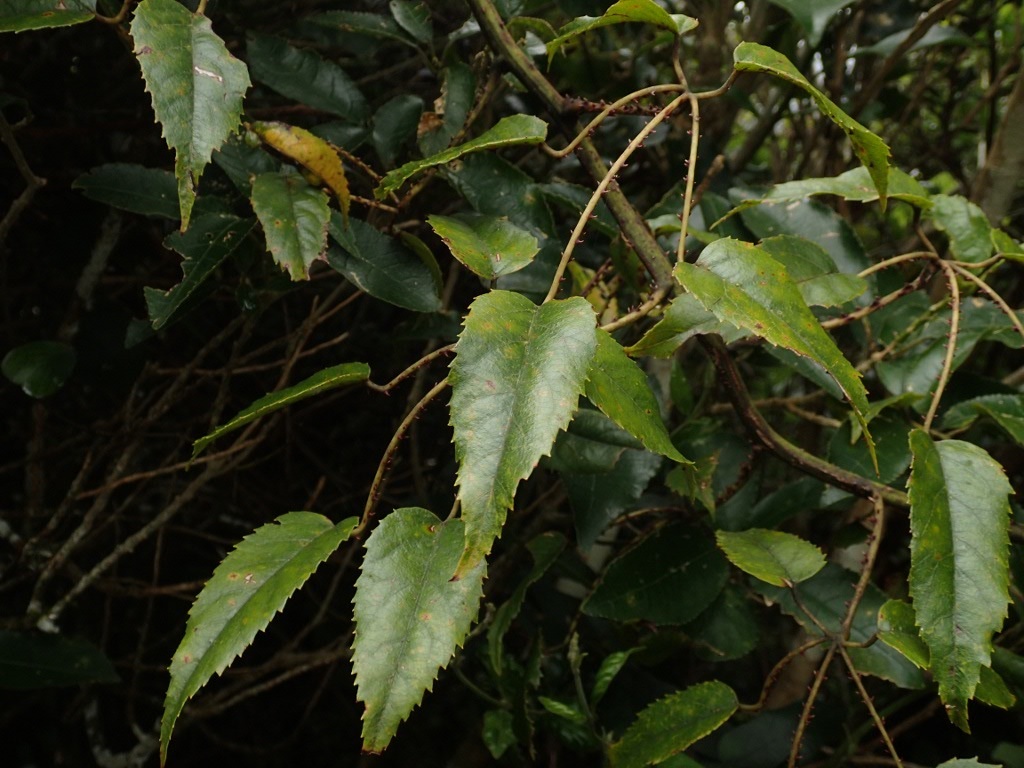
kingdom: Plantae
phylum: Tracheophyta
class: Magnoliopsida
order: Rosales
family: Rosaceae
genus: Rubus
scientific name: Rubus cissoides
